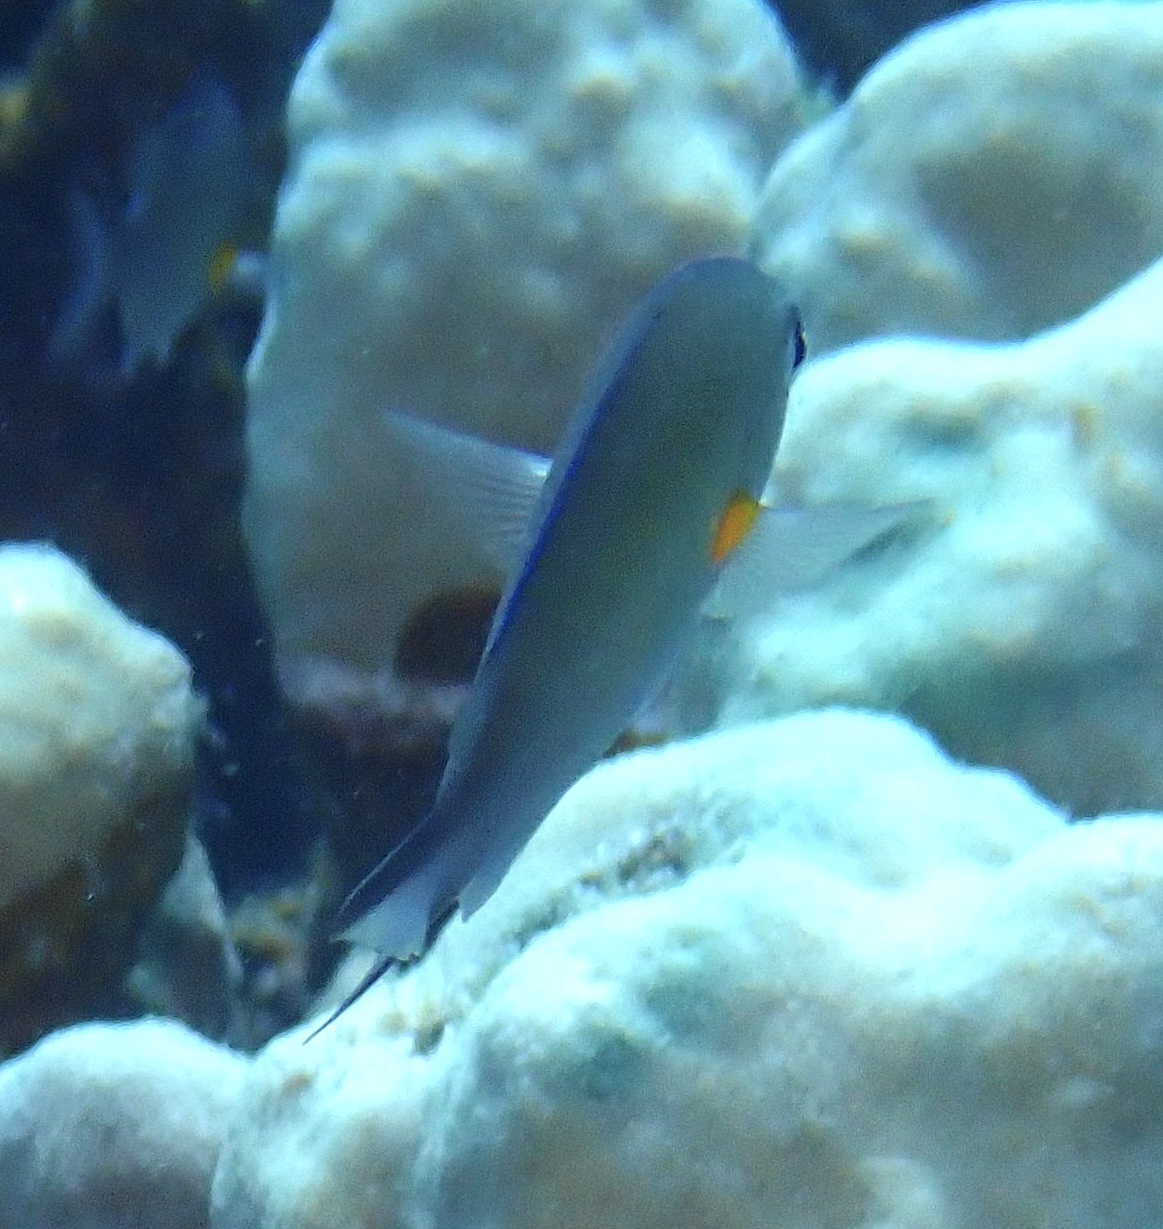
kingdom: Animalia
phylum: Chordata
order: Perciformes
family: Pomacentridae
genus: Chromis
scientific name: Chromis flavaxilla
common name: Arabian chromis
